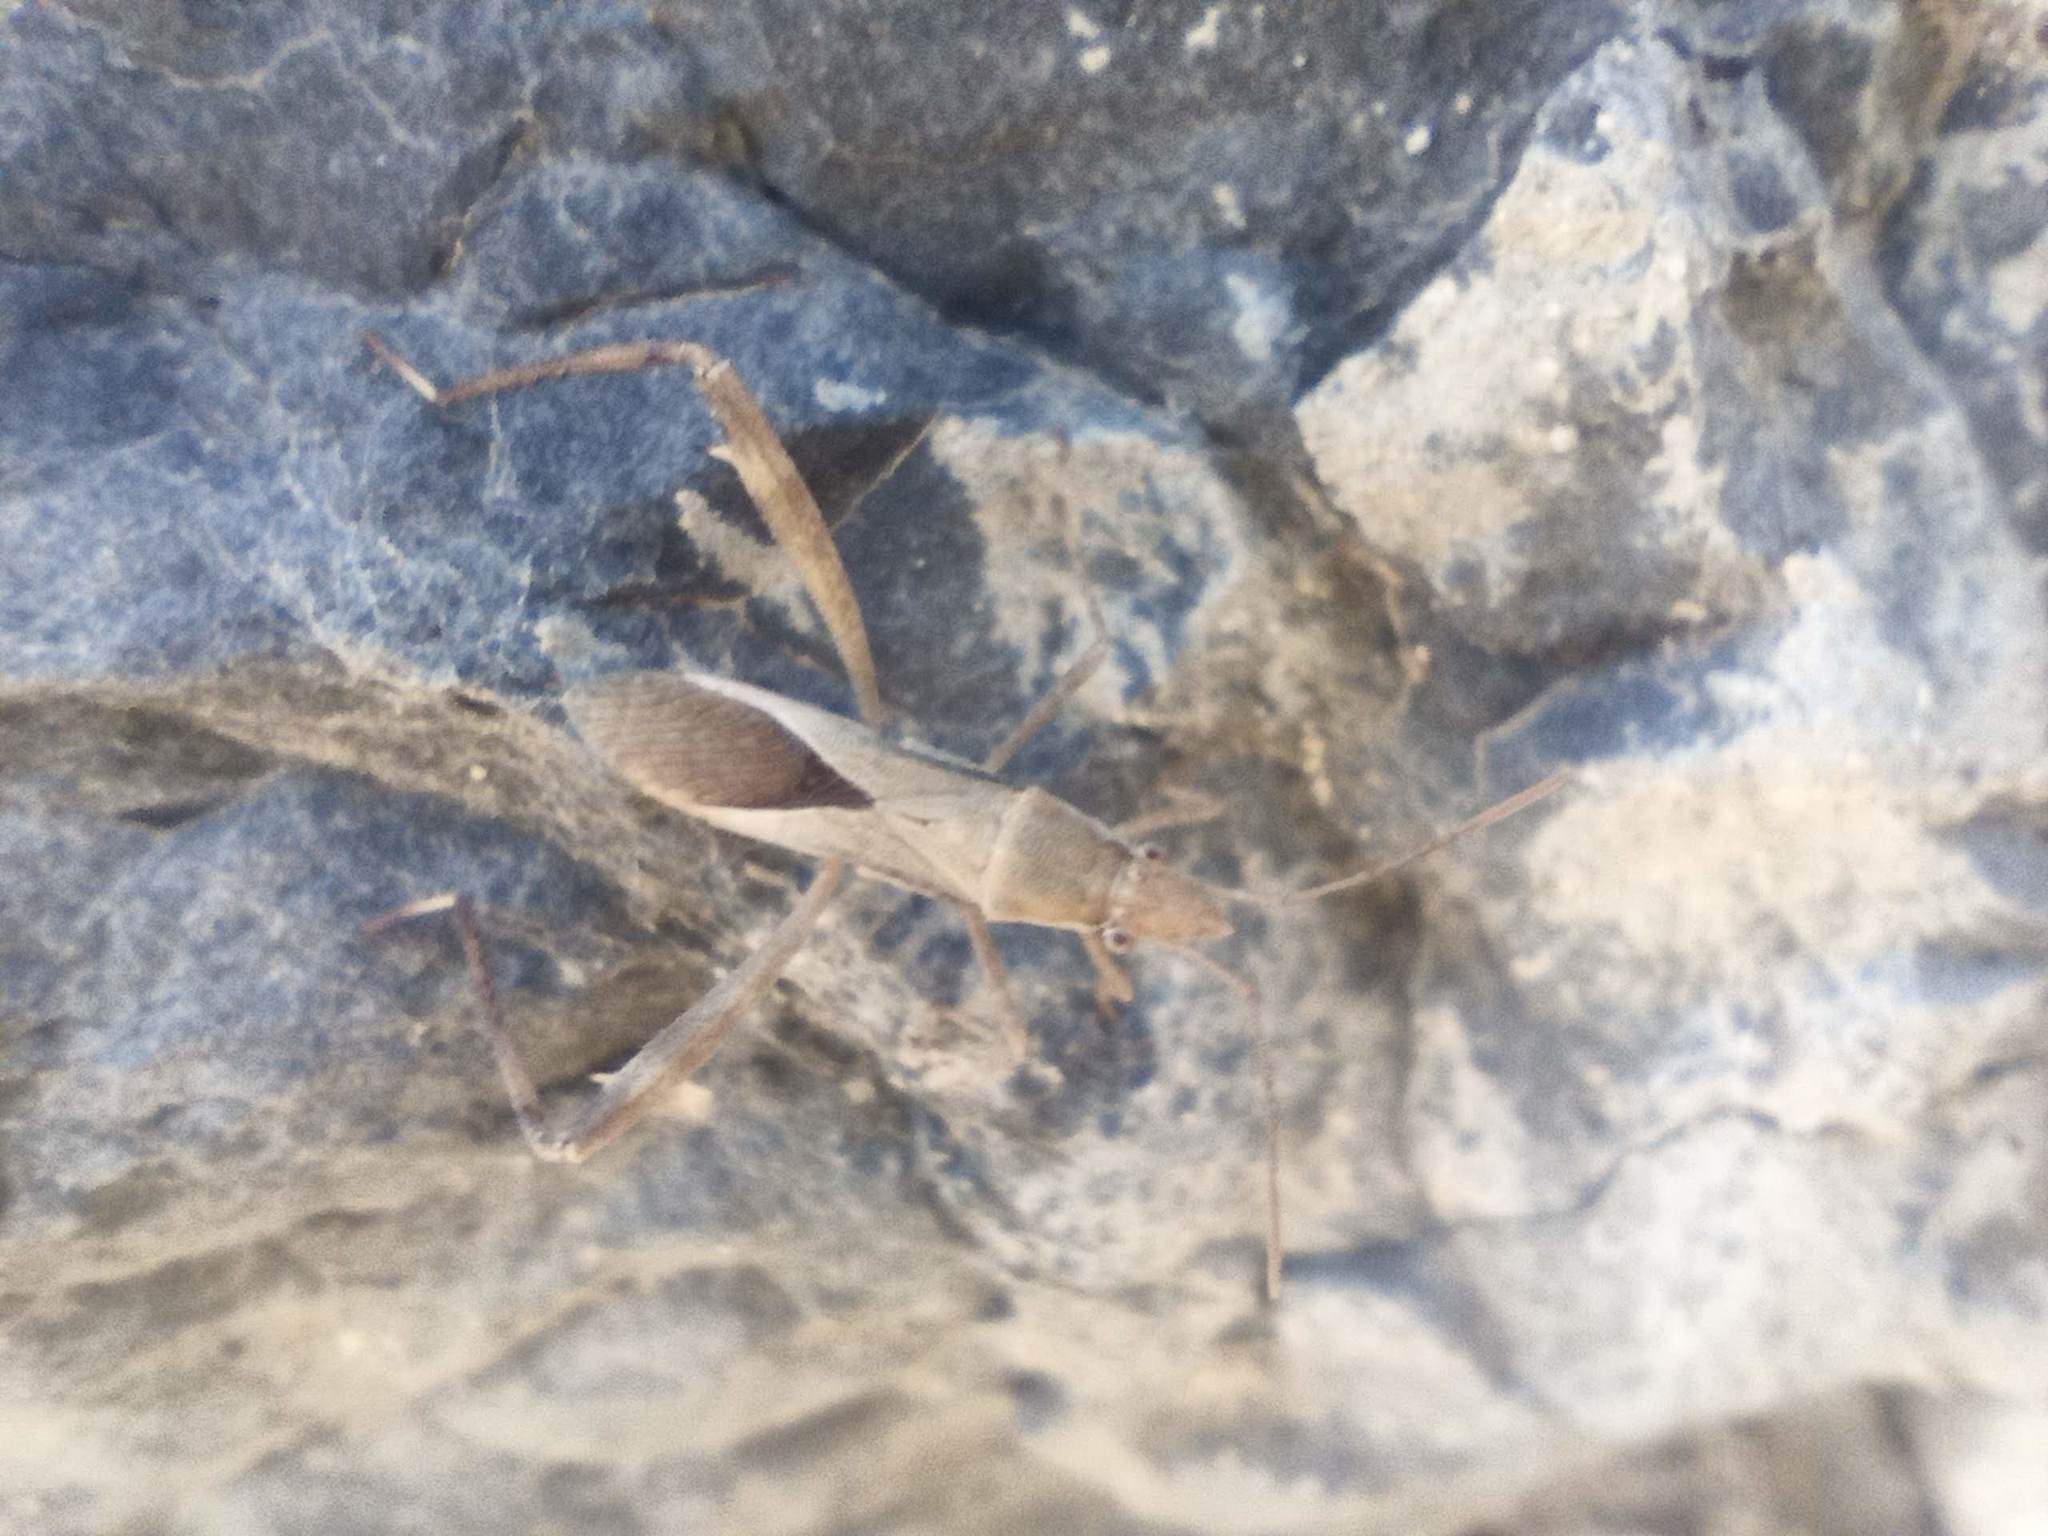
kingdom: Animalia
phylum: Arthropoda
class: Insecta
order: Hemiptera
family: Alydidae
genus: Nariscus
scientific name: Nariscus spinosus
